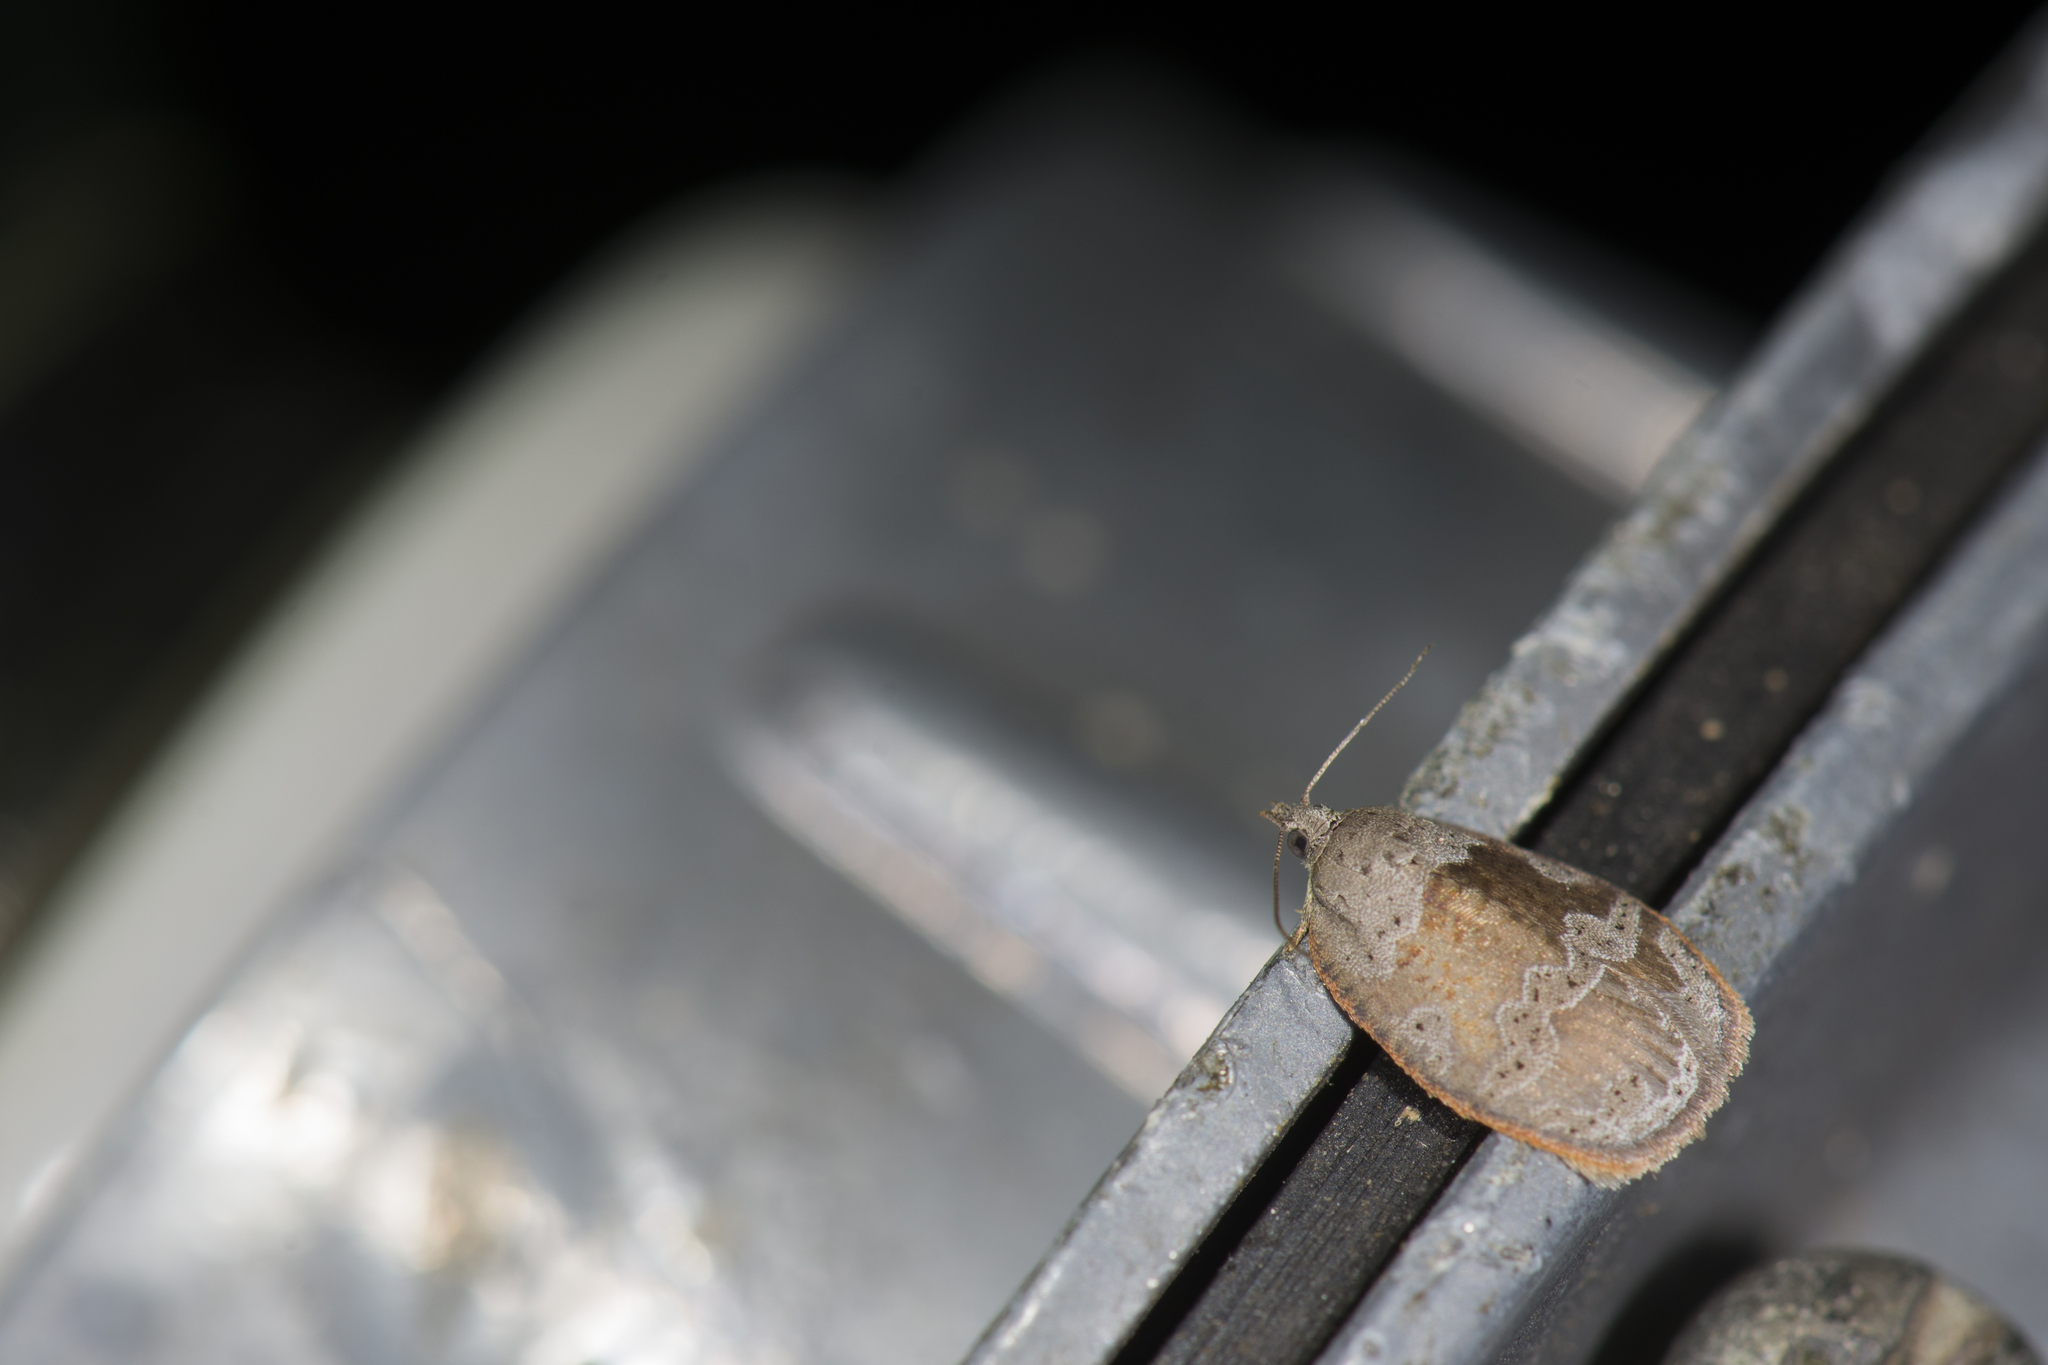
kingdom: Animalia
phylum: Arthropoda
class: Insecta
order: Lepidoptera
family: Tortricidae
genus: Ebodina
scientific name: Ebodina elephantodes
